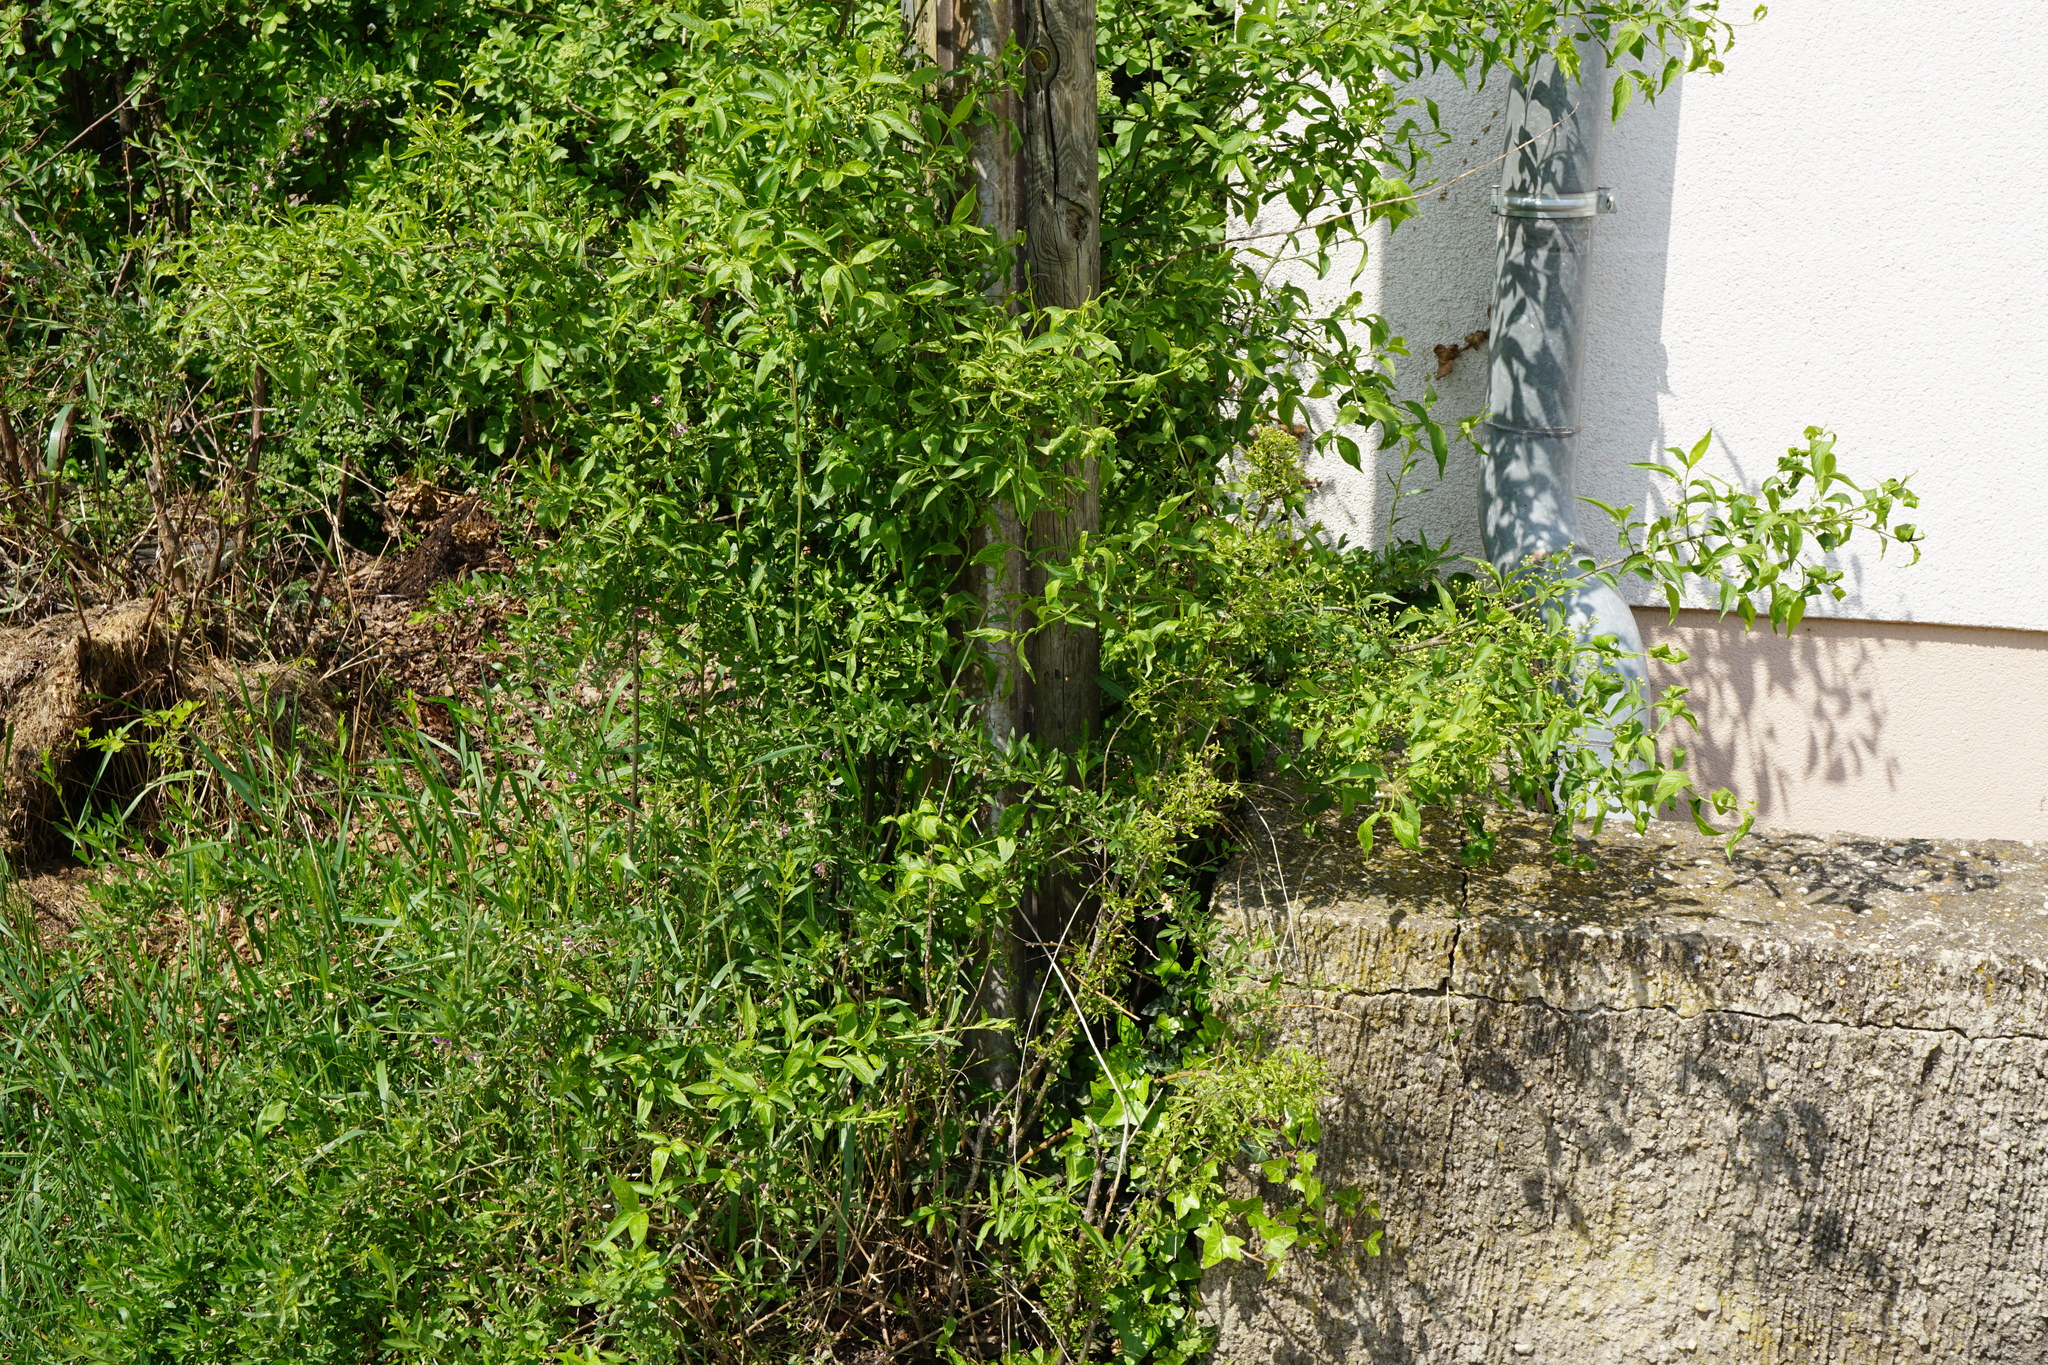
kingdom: Plantae
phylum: Tracheophyta
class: Magnoliopsida
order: Celastrales
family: Celastraceae
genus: Euonymus
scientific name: Euonymus europaeus
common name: Spindle
